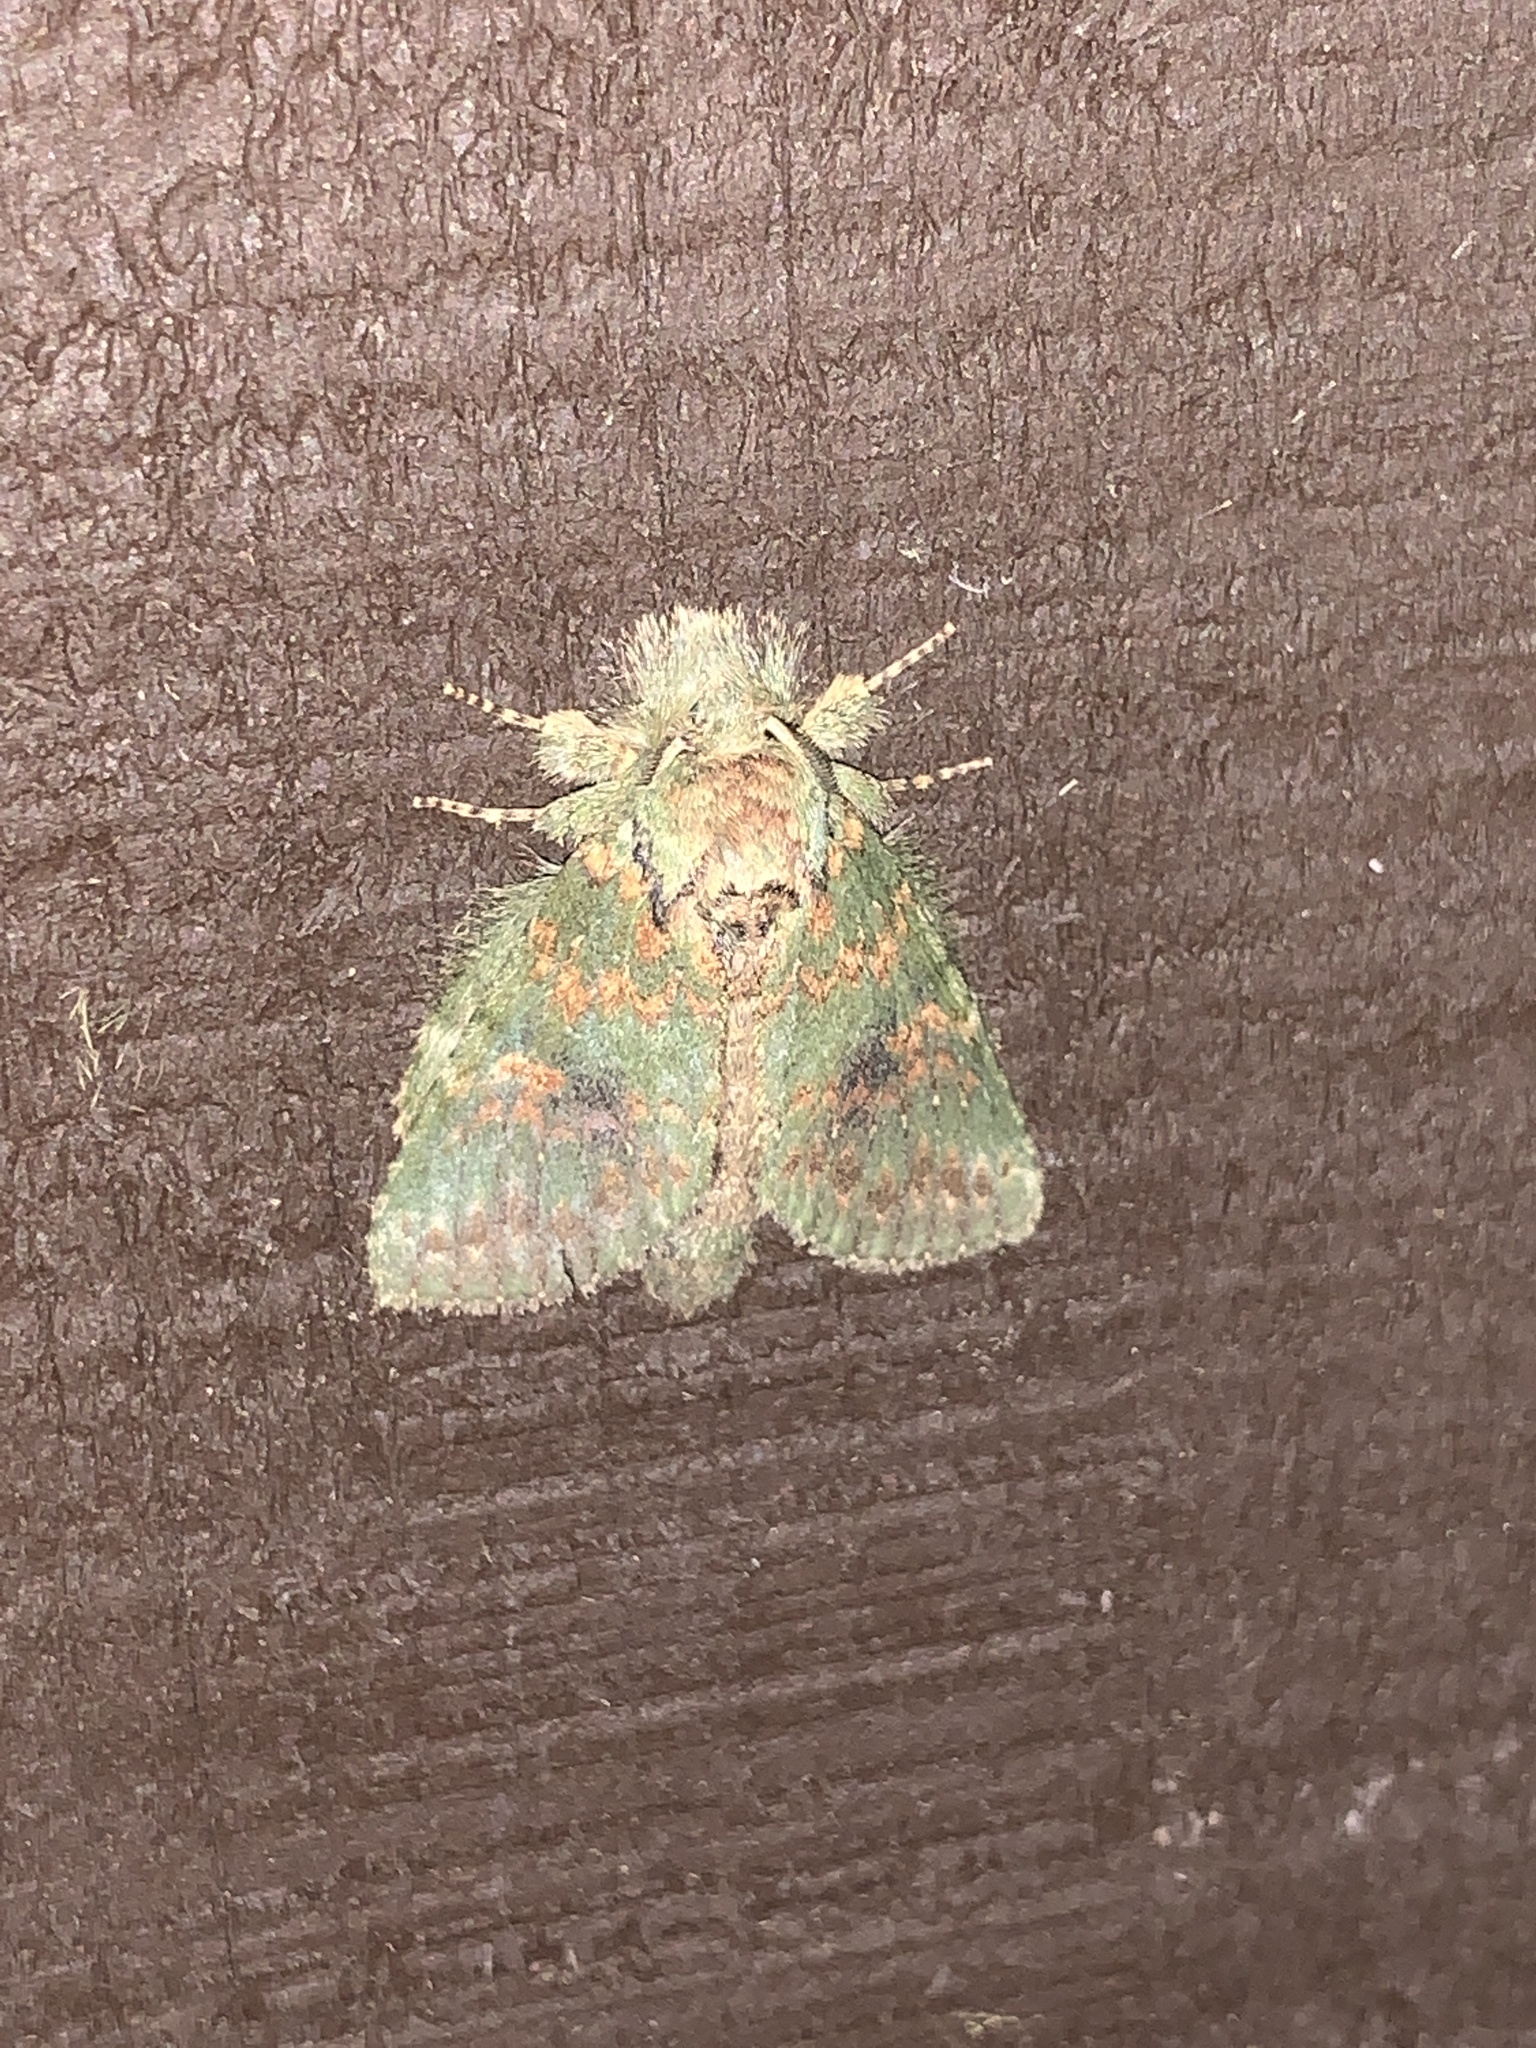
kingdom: Animalia
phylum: Arthropoda
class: Insecta
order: Lepidoptera
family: Notodontidae
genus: Disphragis
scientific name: Disphragis Cecrita biundata
